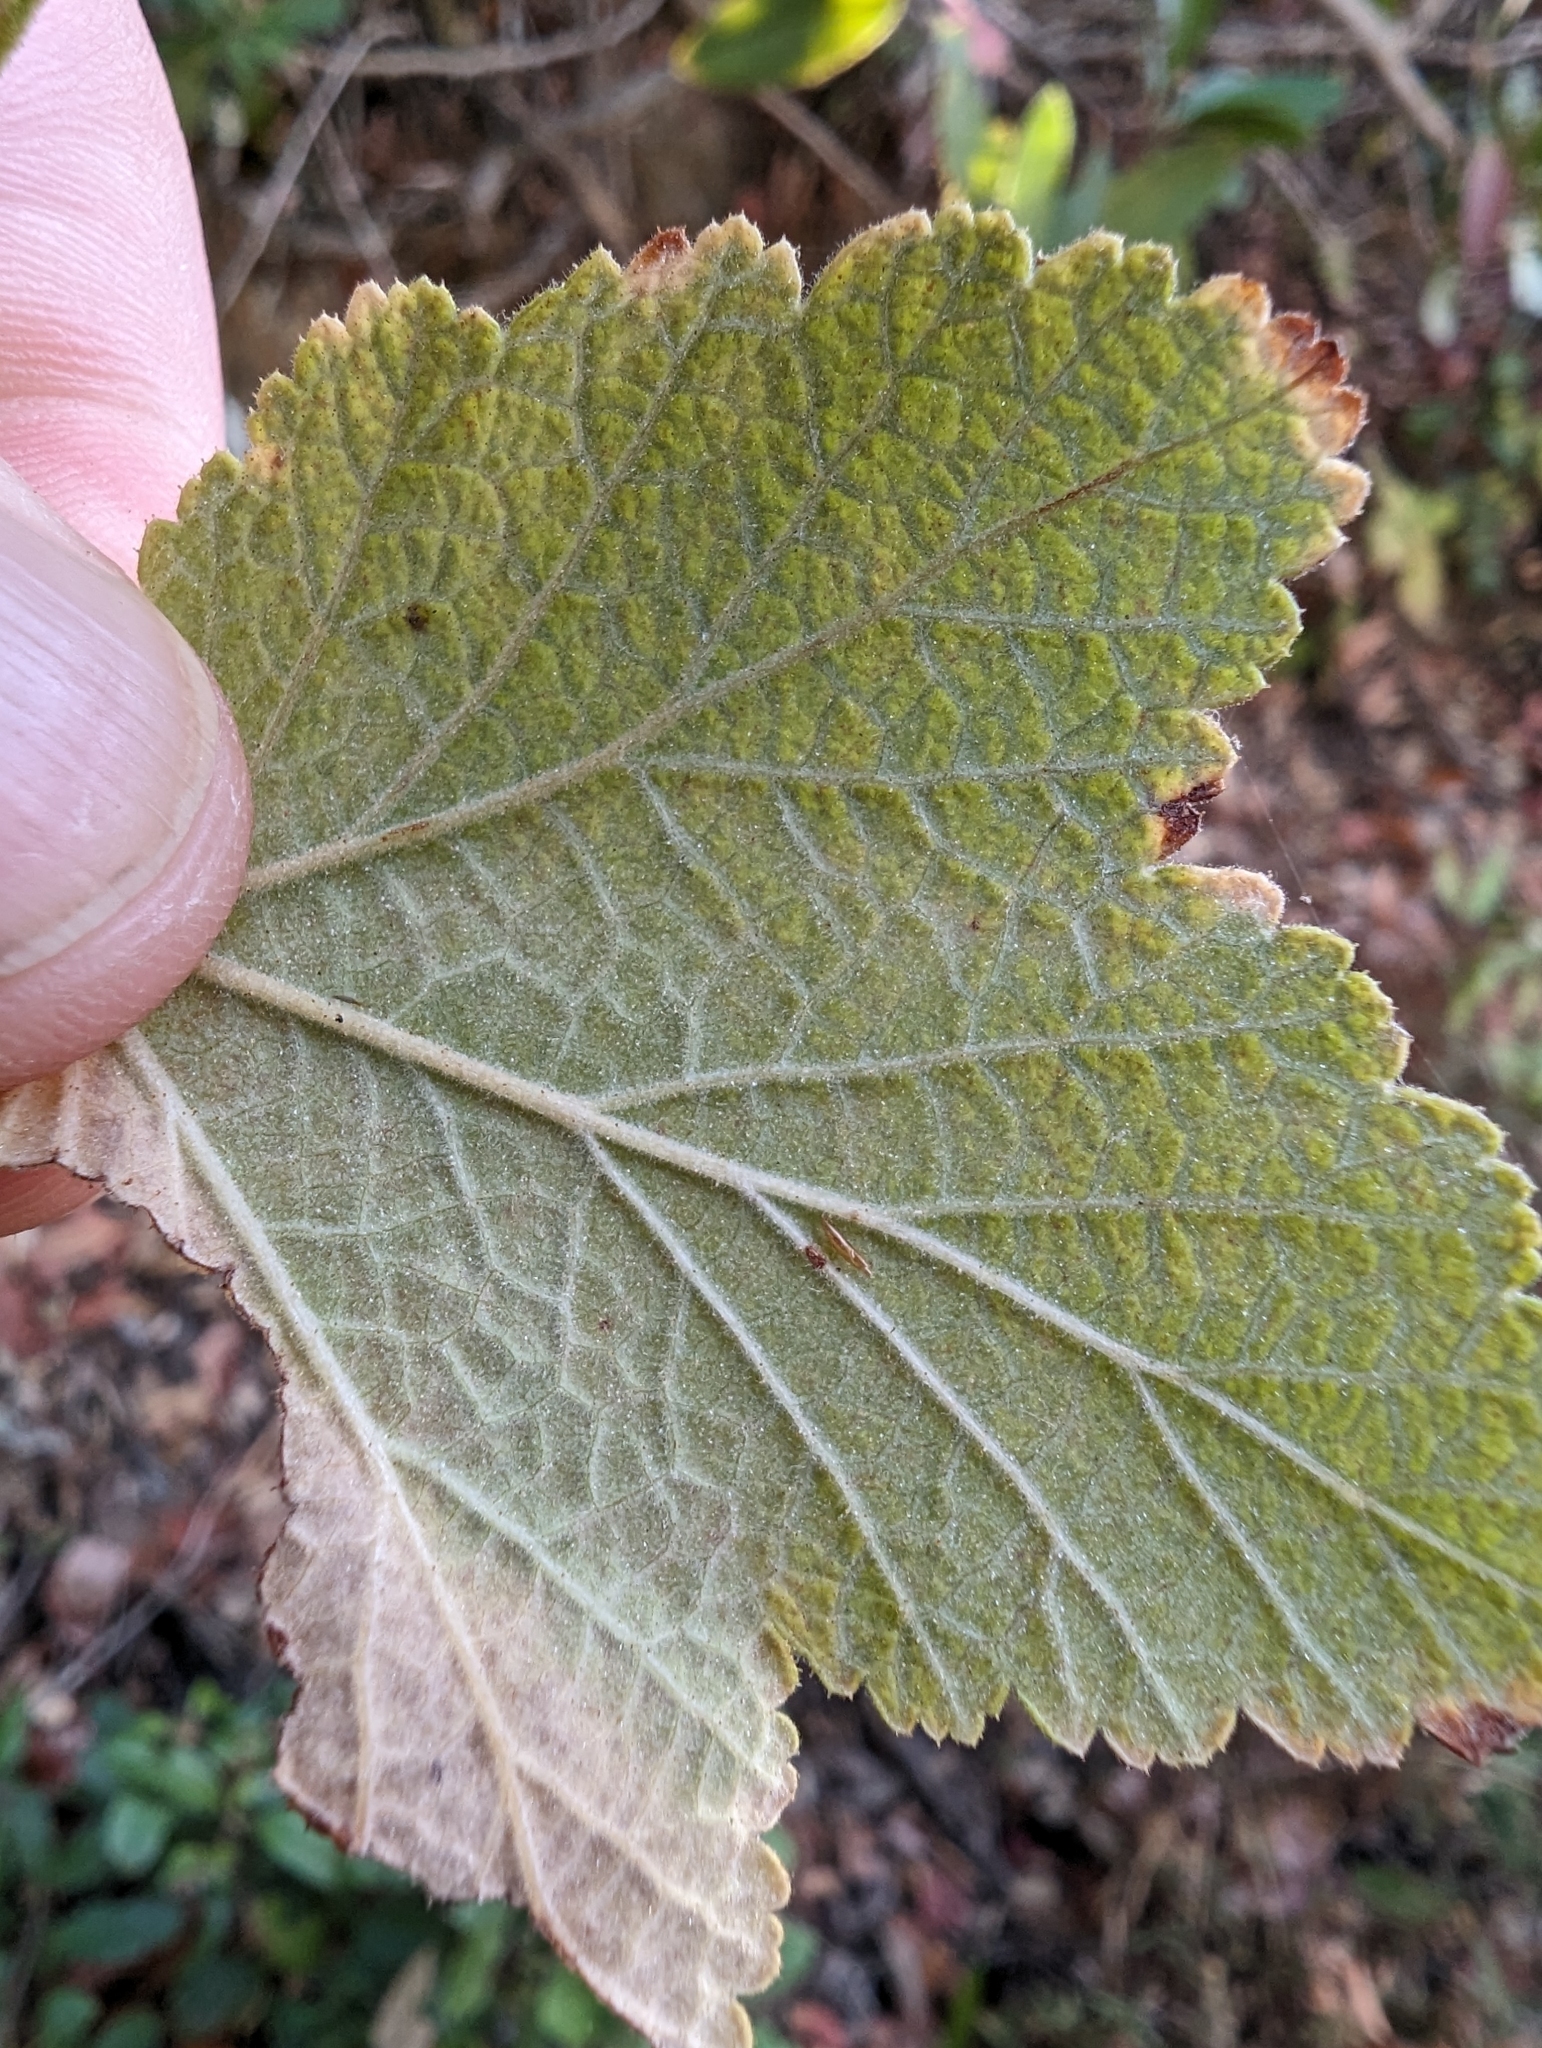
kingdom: Plantae
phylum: Tracheophyta
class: Magnoliopsida
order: Saxifragales
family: Grossulariaceae
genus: Ribes
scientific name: Ribes malvaceum
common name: Chaparral currant
